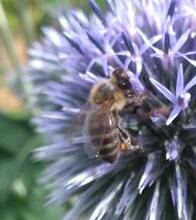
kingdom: Animalia
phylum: Arthropoda
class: Insecta
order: Hymenoptera
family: Apidae
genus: Apis
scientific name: Apis mellifera
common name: Honey bee
